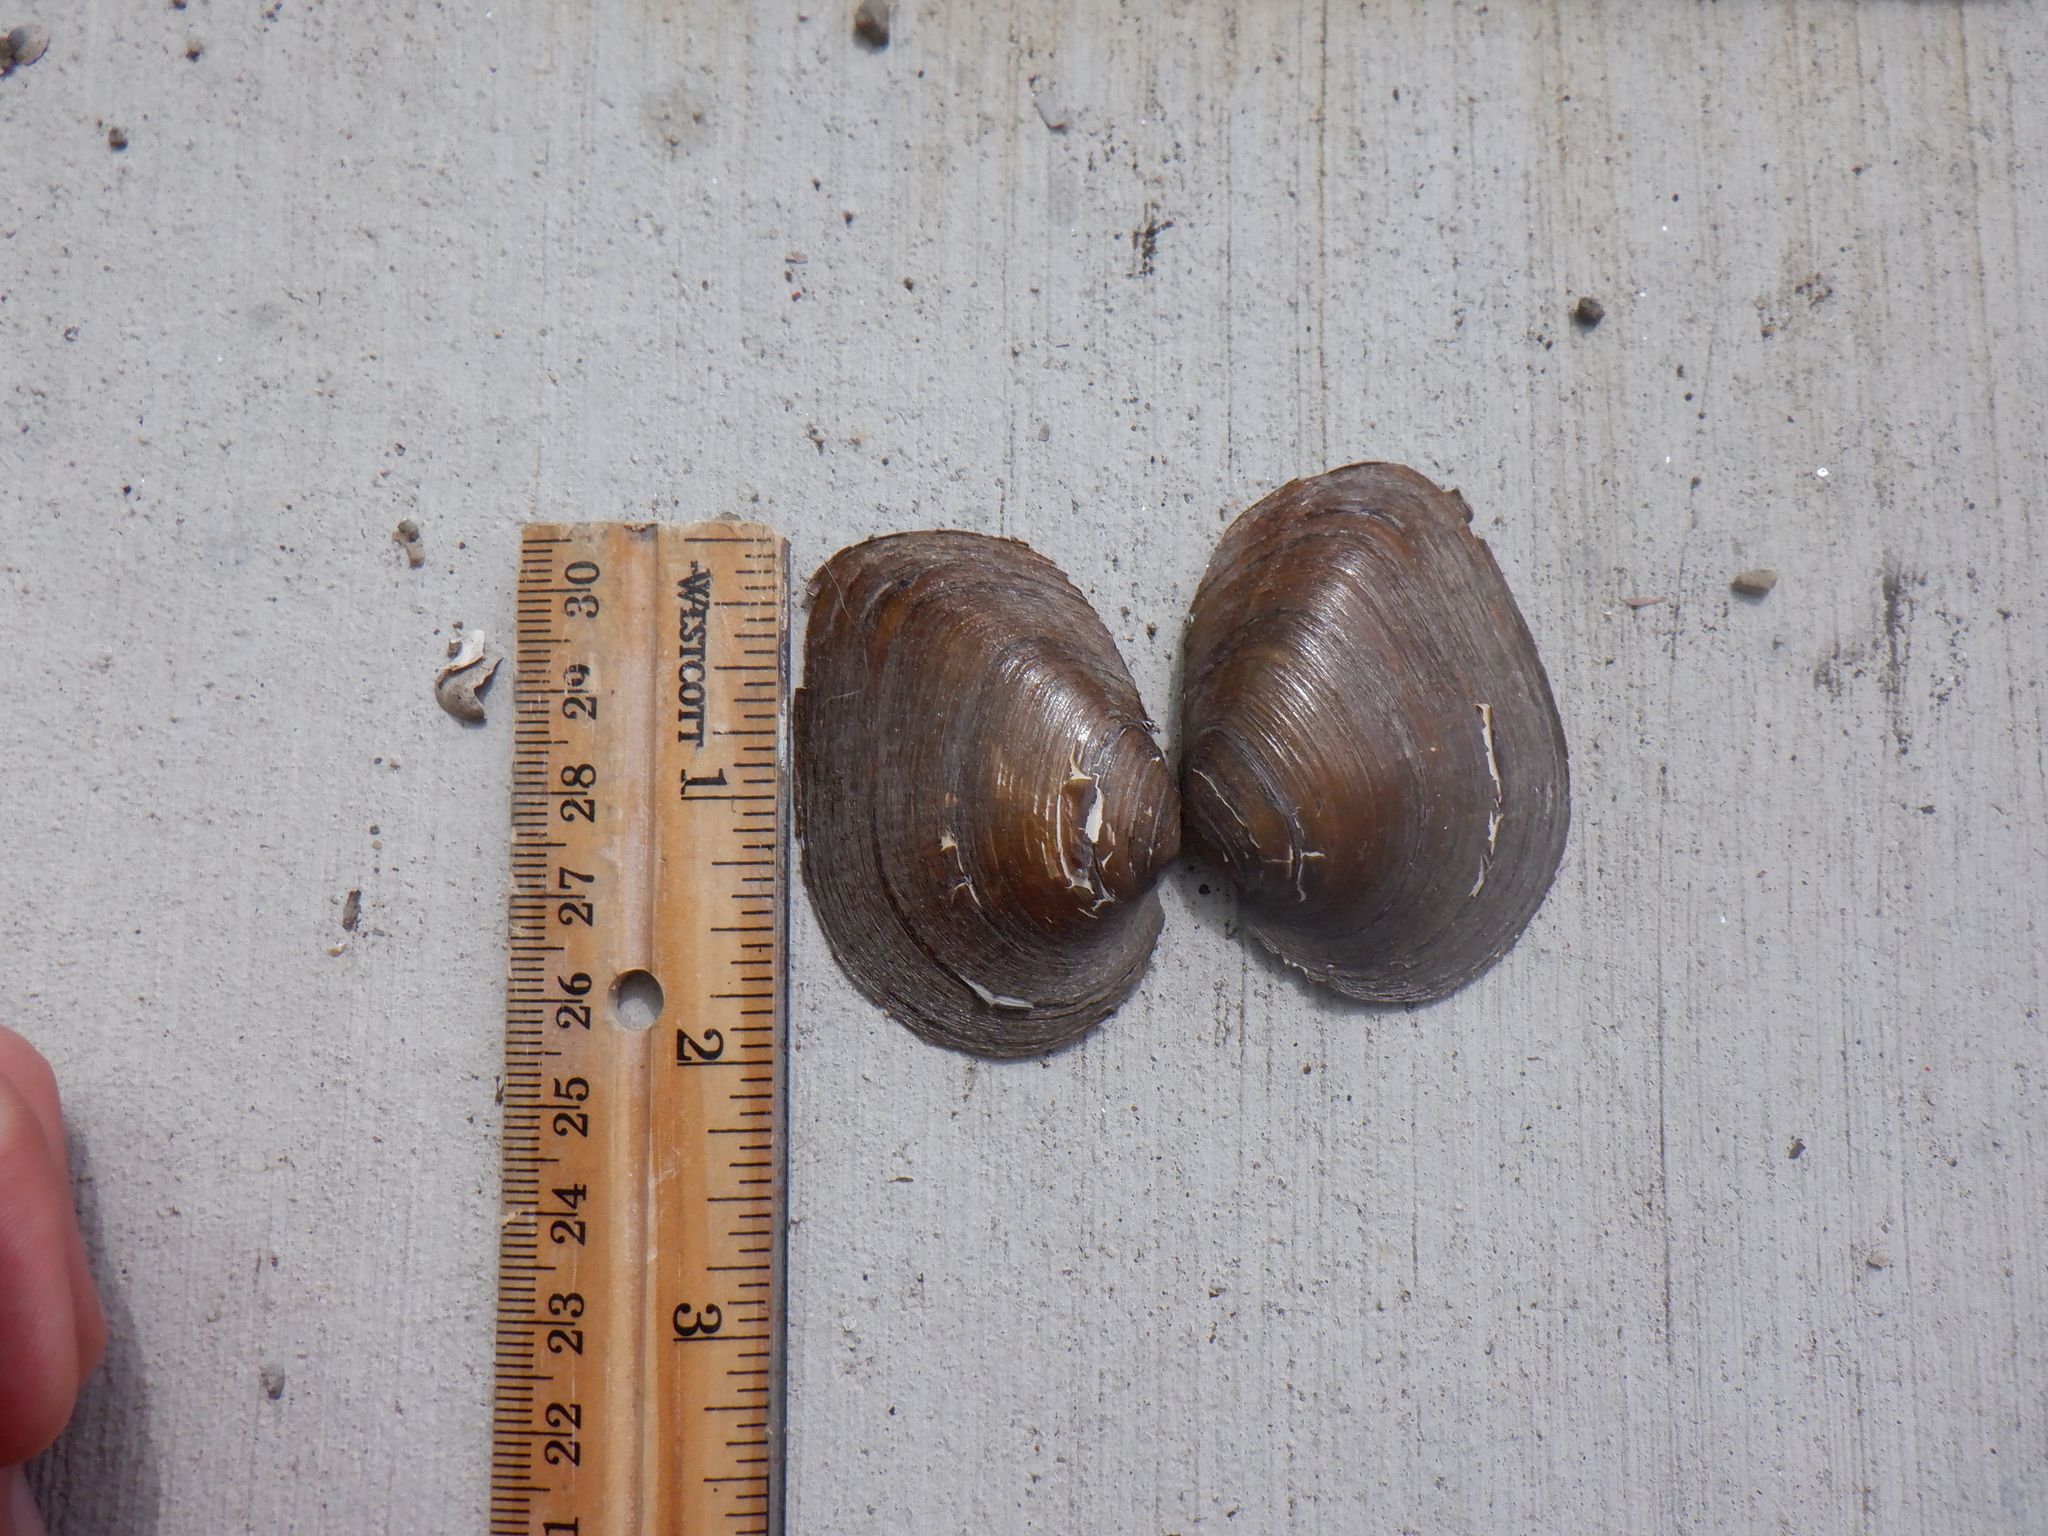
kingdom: Animalia
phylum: Mollusca
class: Bivalvia
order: Unionida
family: Unionidae
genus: Fusconaia
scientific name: Fusconaia flava
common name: Wabash pigtoe
